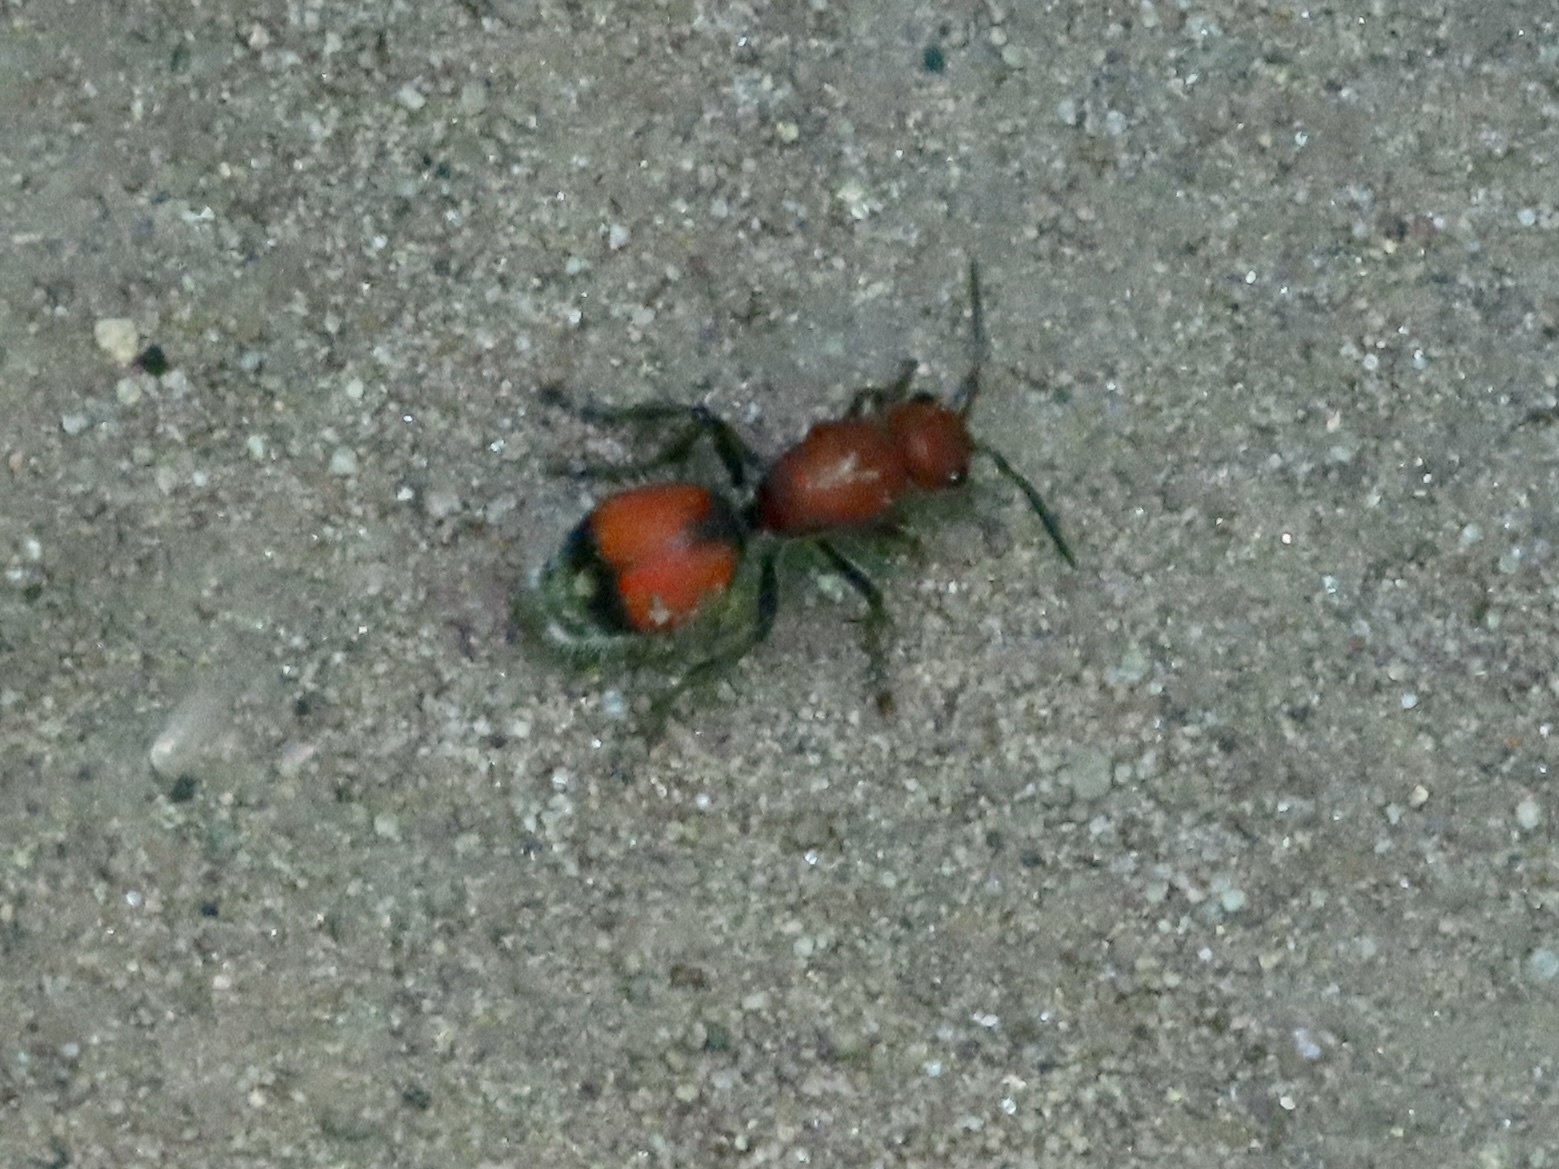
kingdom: Animalia
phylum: Arthropoda
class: Insecta
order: Hymenoptera
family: Mutillidae
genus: Dasymutilla
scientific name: Dasymutilla
